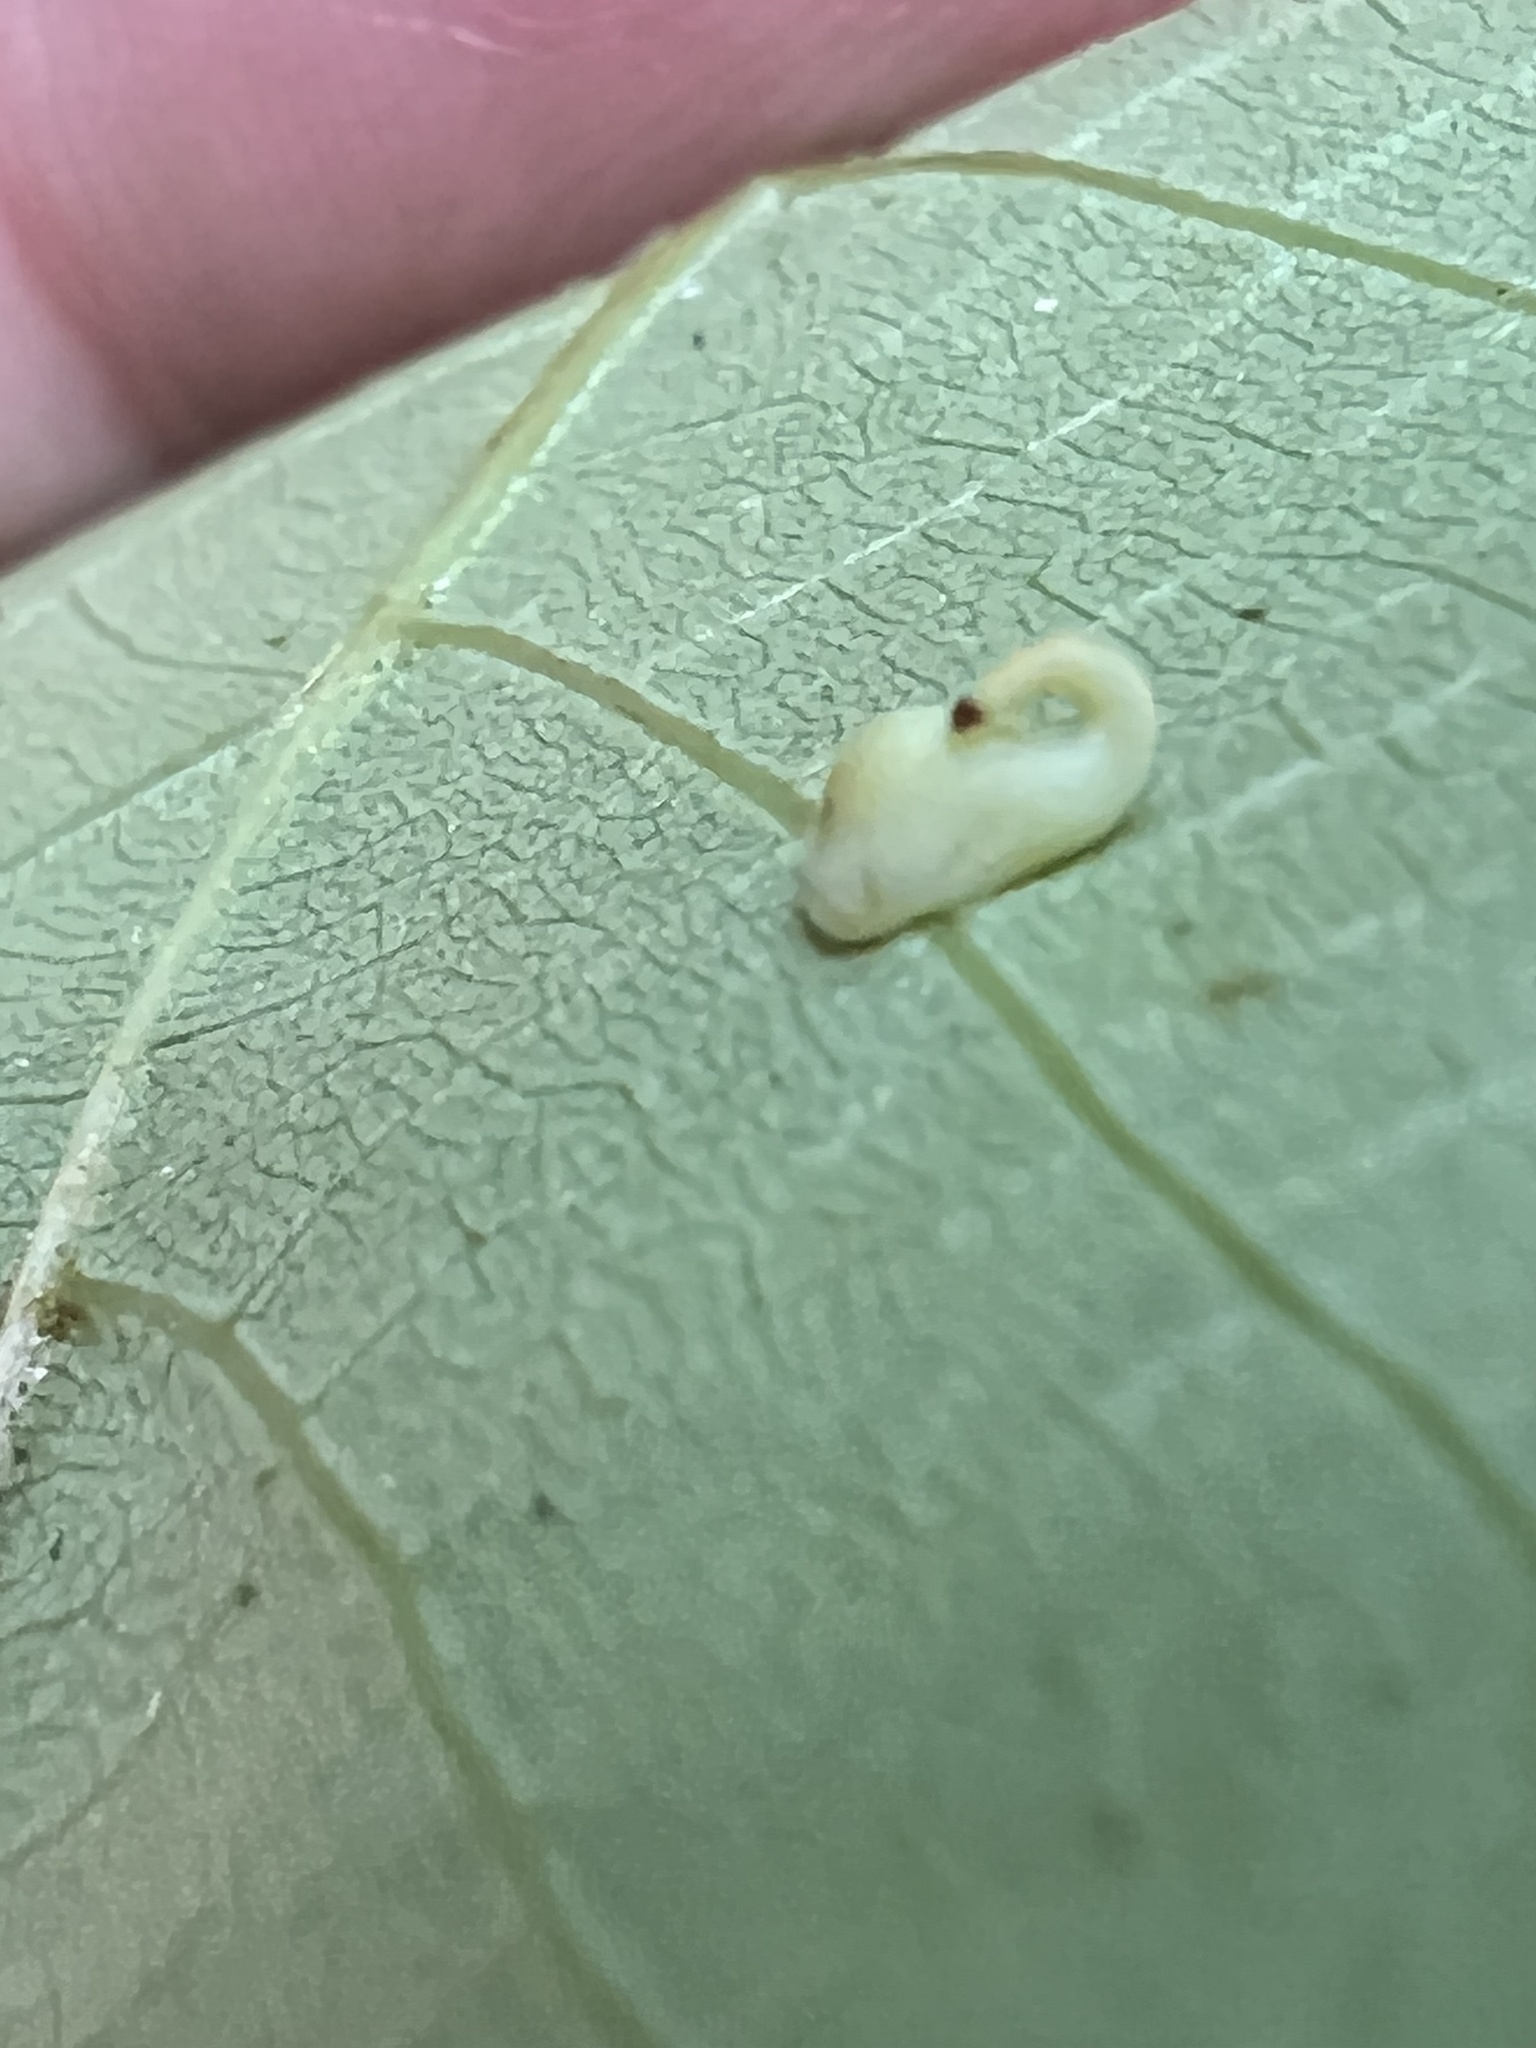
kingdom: Animalia
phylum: Arthropoda
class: Insecta
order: Diptera
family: Cecidomyiidae
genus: Caryomyia
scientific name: Caryomyia recurvata
